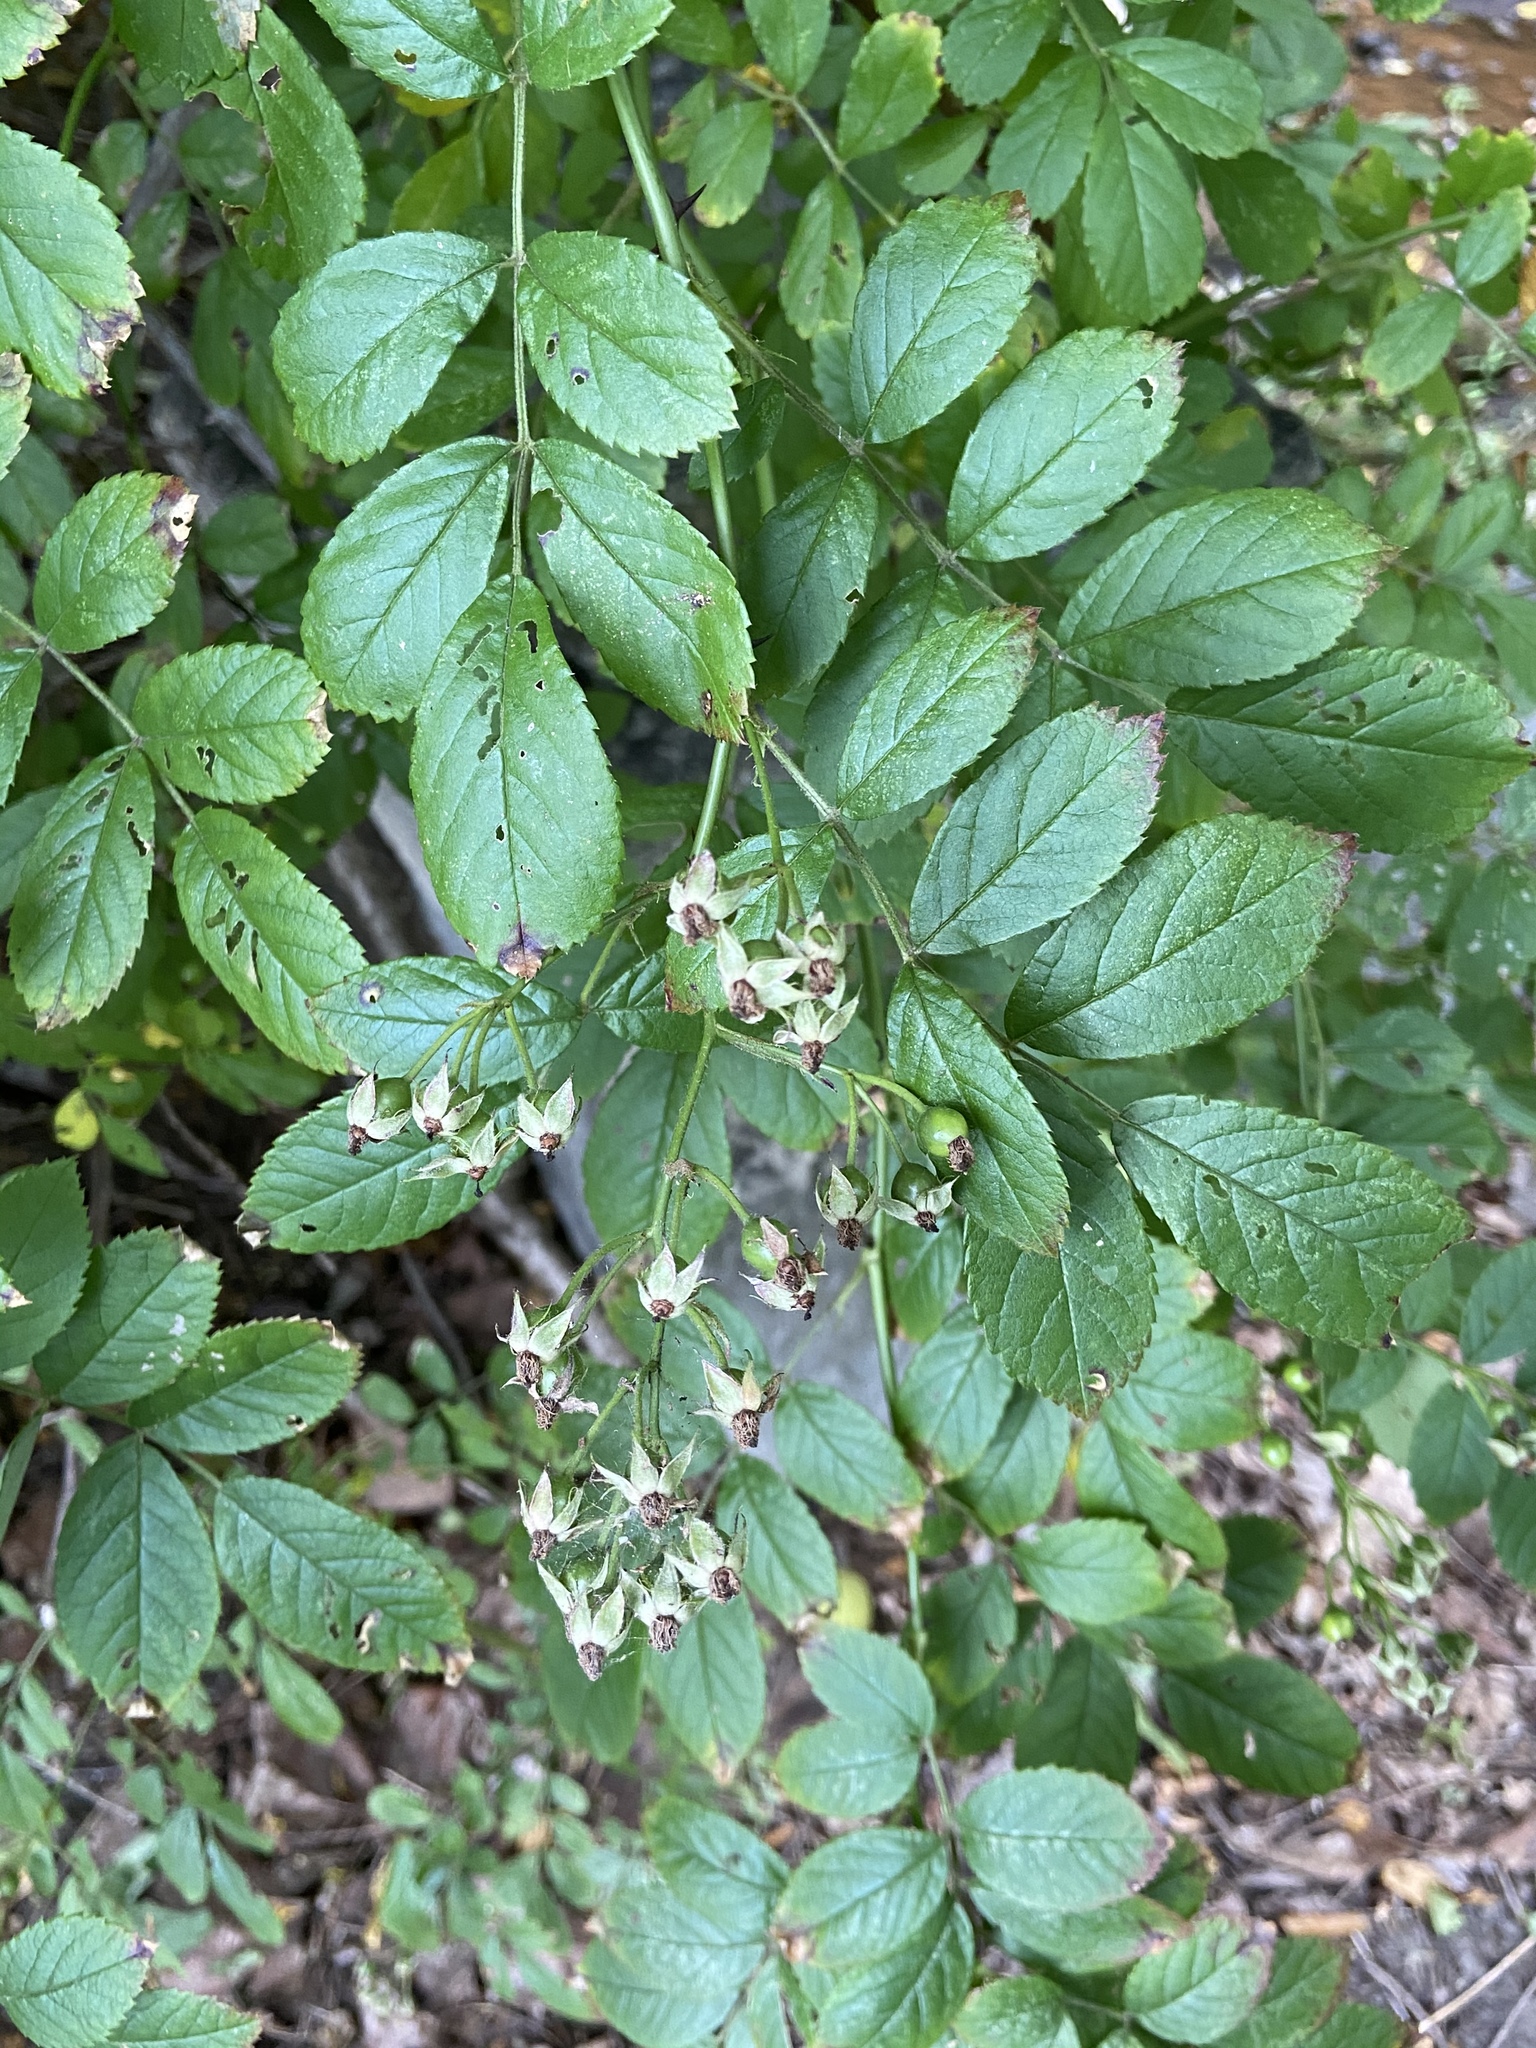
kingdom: Plantae
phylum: Tracheophyta
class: Magnoliopsida
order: Rosales
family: Rosaceae
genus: Rosa
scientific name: Rosa multiflora
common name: Multiflora rose
